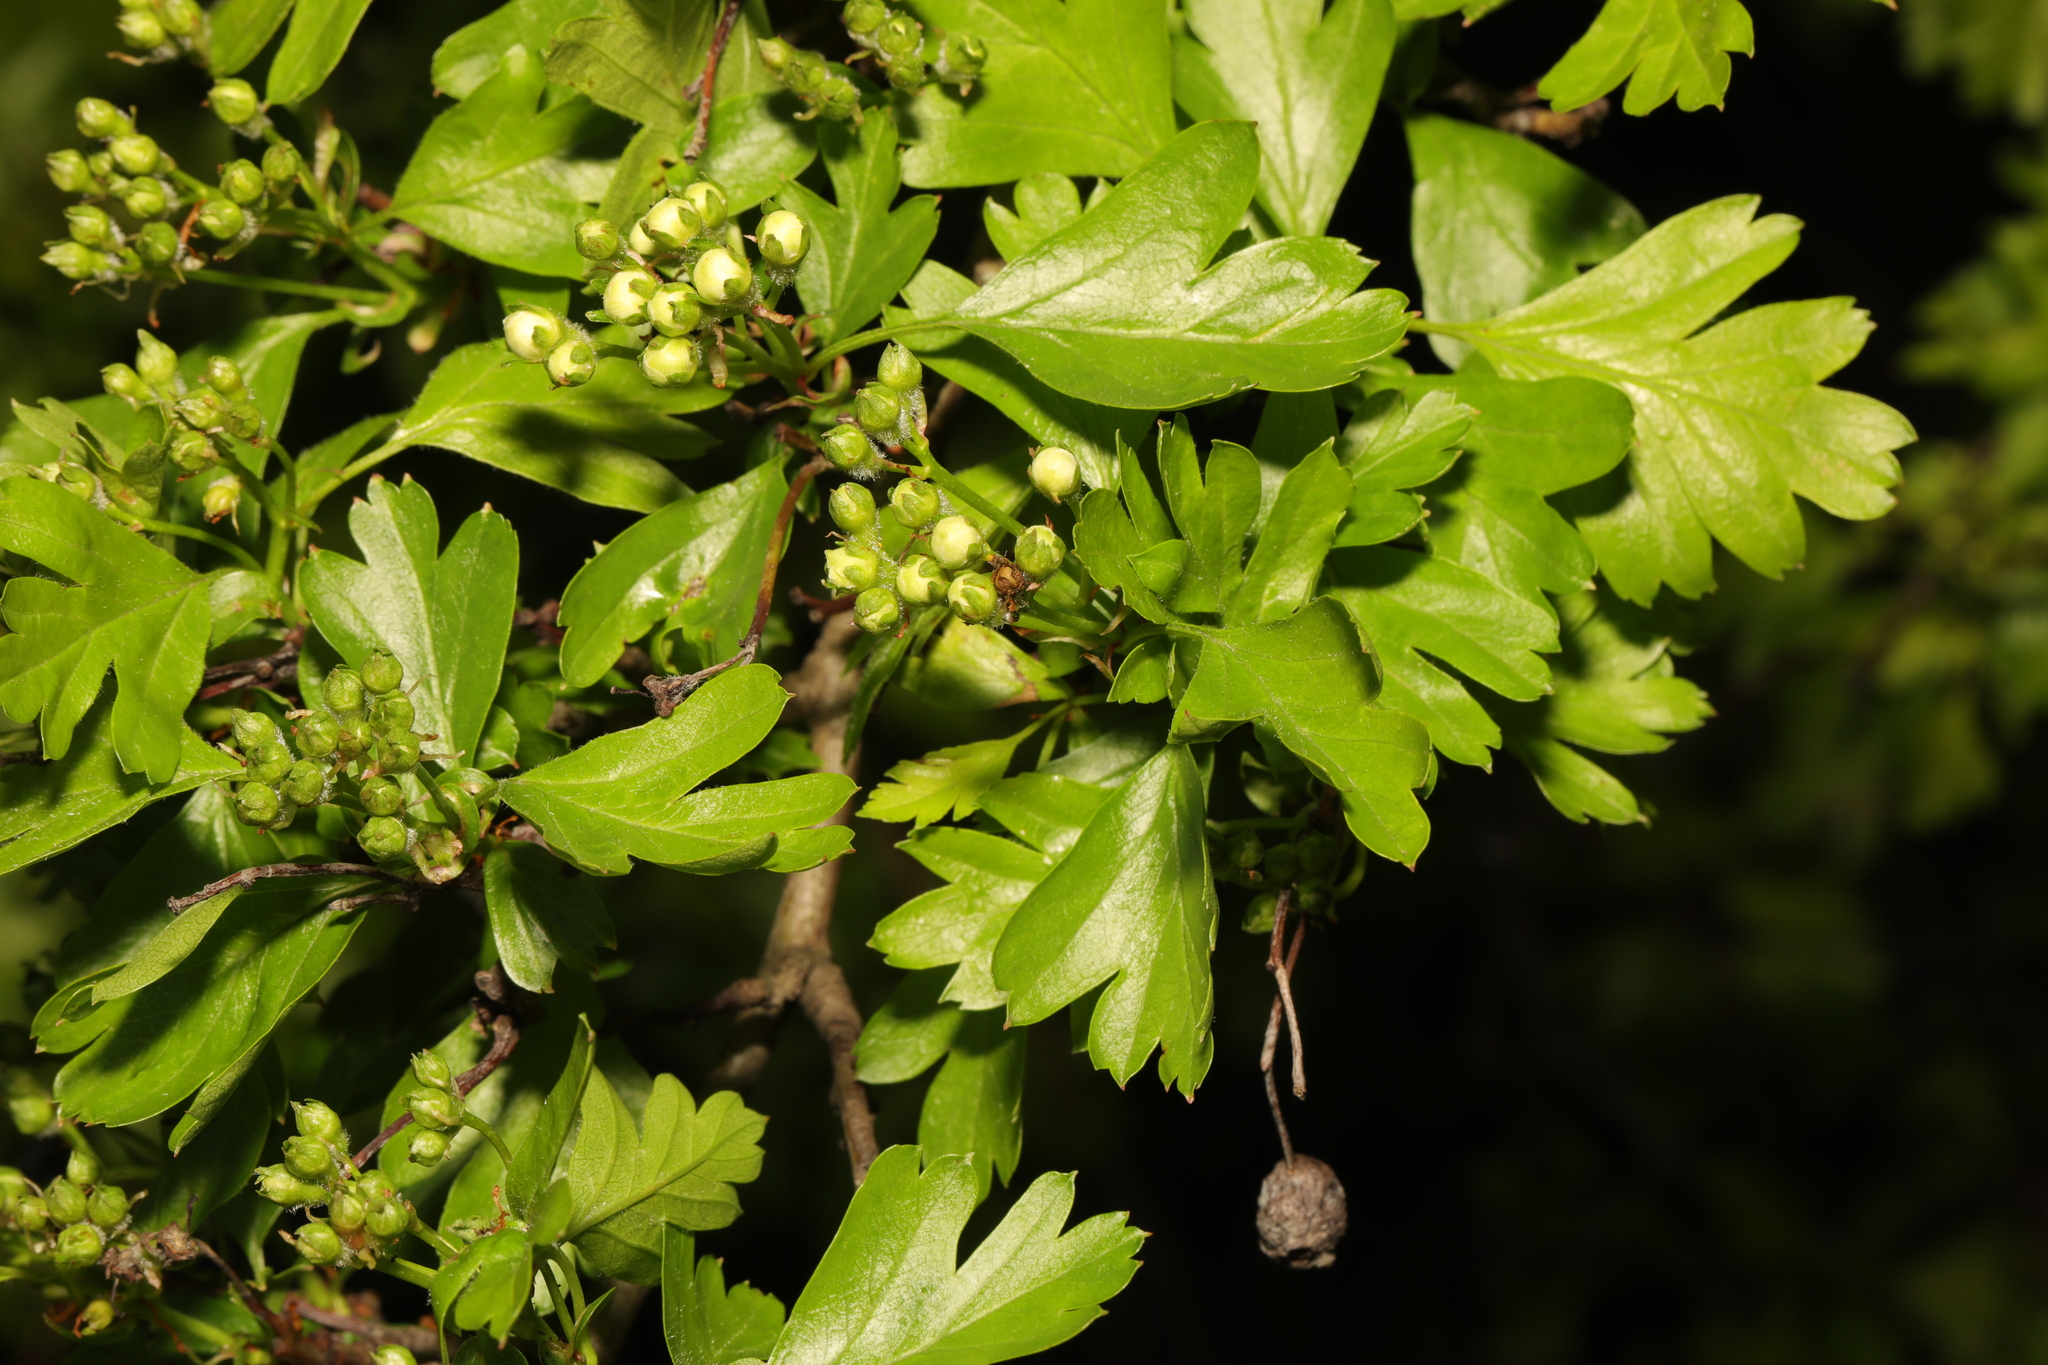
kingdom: Plantae
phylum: Tracheophyta
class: Magnoliopsida
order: Rosales
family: Rosaceae
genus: Crataegus
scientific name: Crataegus monogyna
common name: Hawthorn
